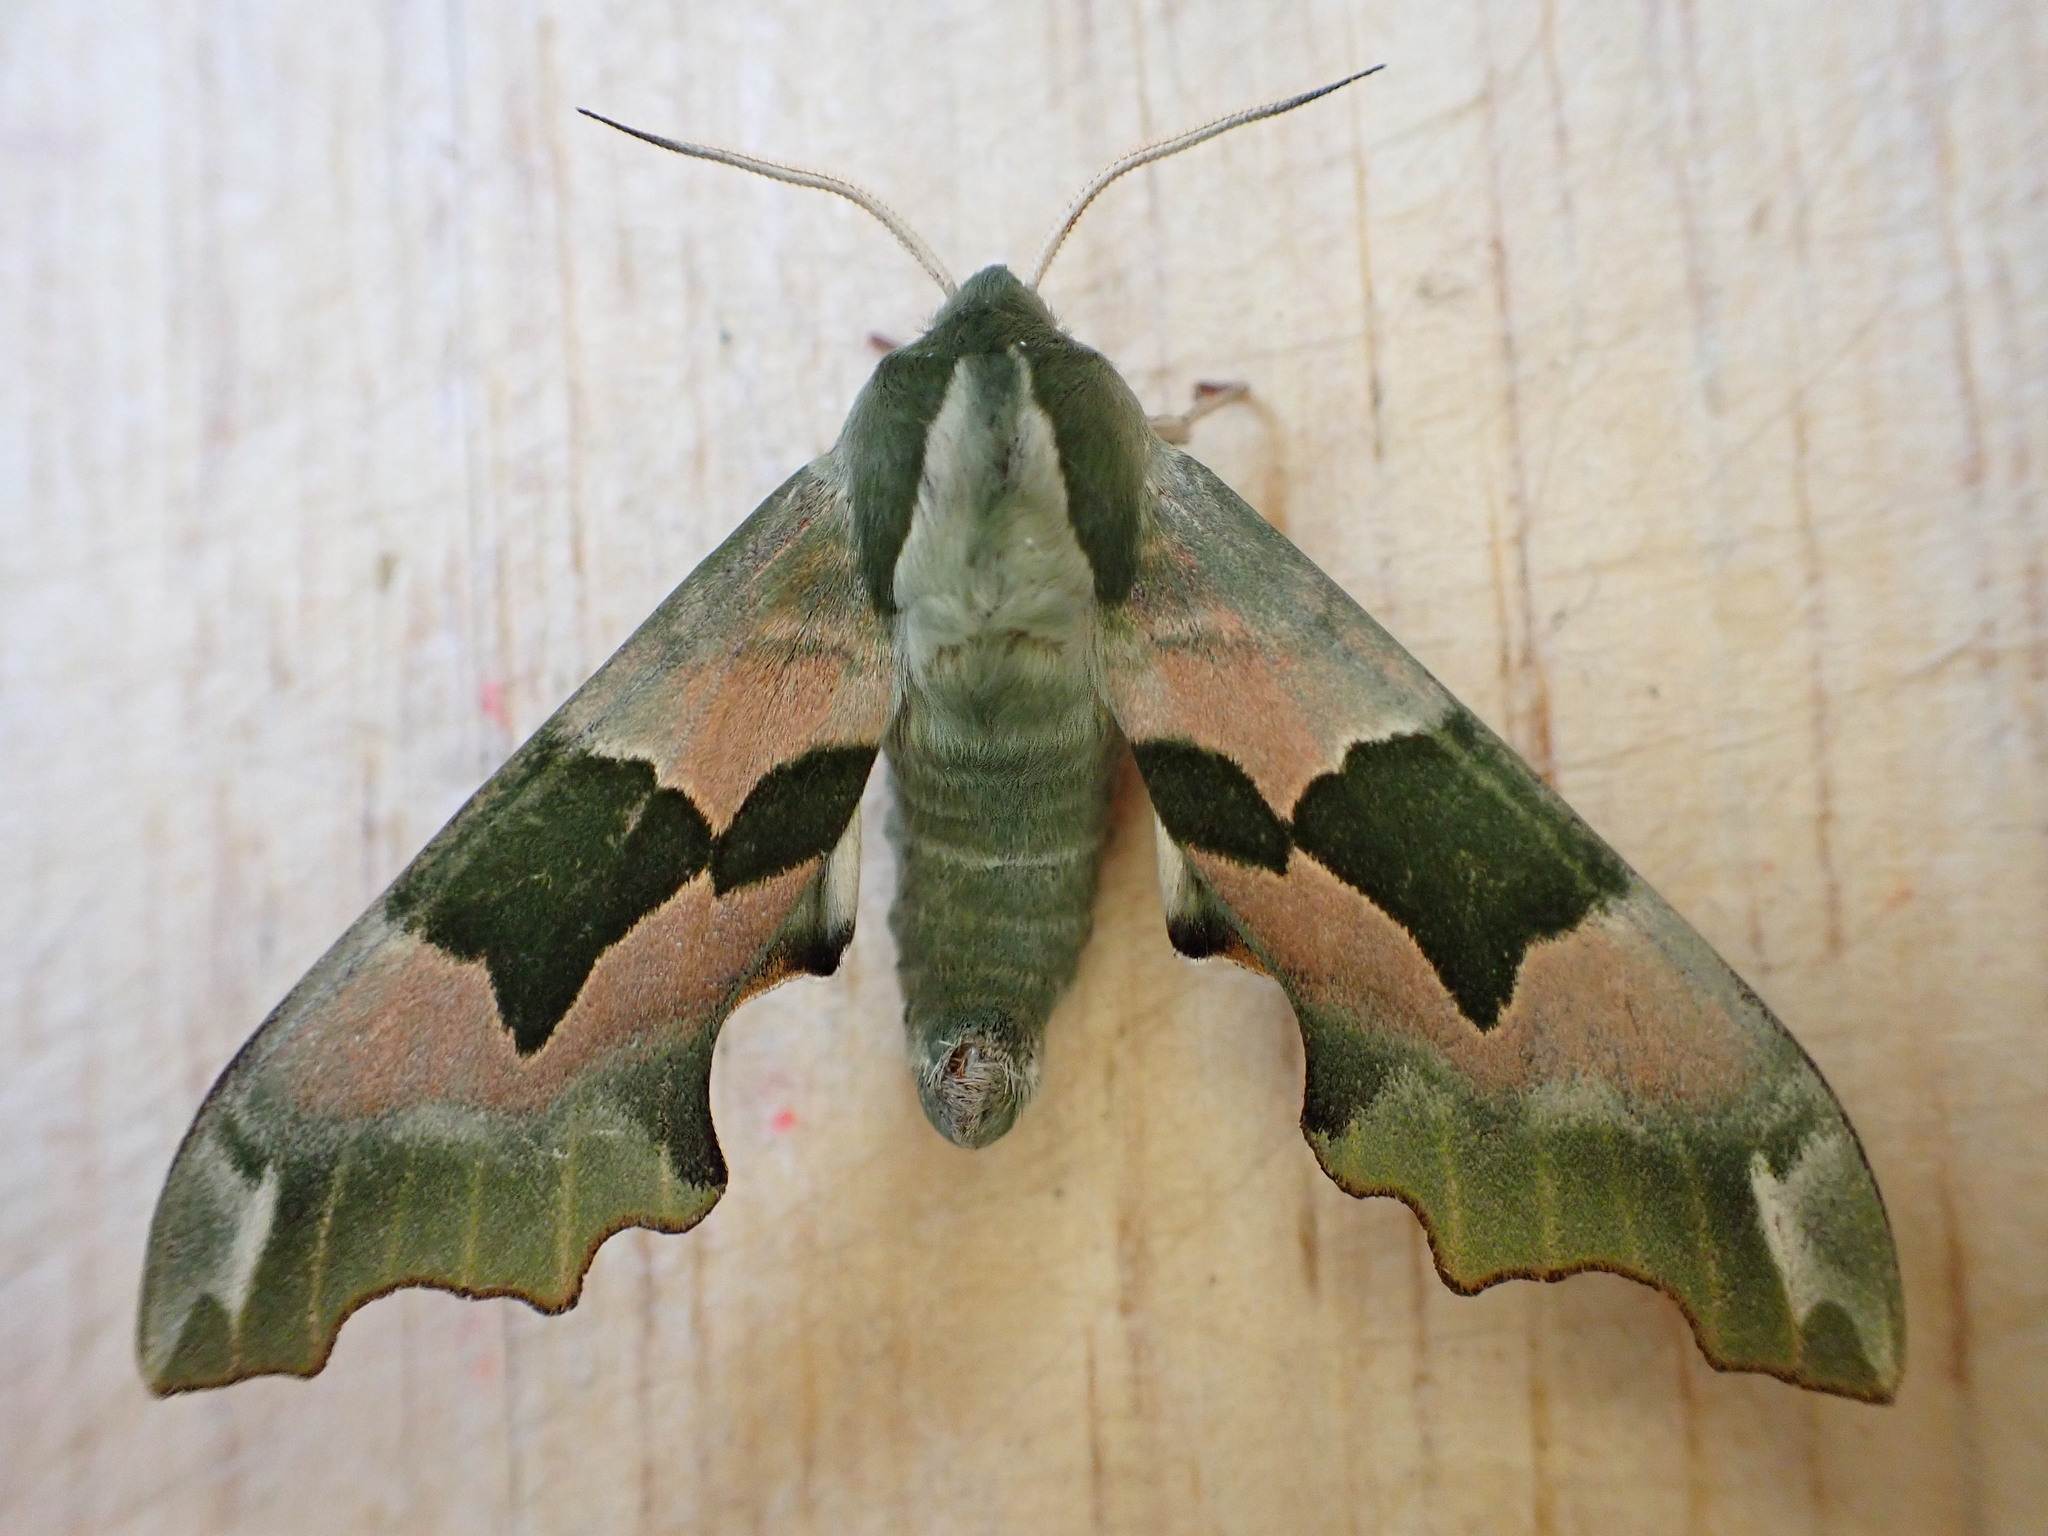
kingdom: Animalia
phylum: Arthropoda
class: Insecta
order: Lepidoptera
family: Sphingidae
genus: Mimas
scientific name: Mimas tiliae
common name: Lime hawk-moth
